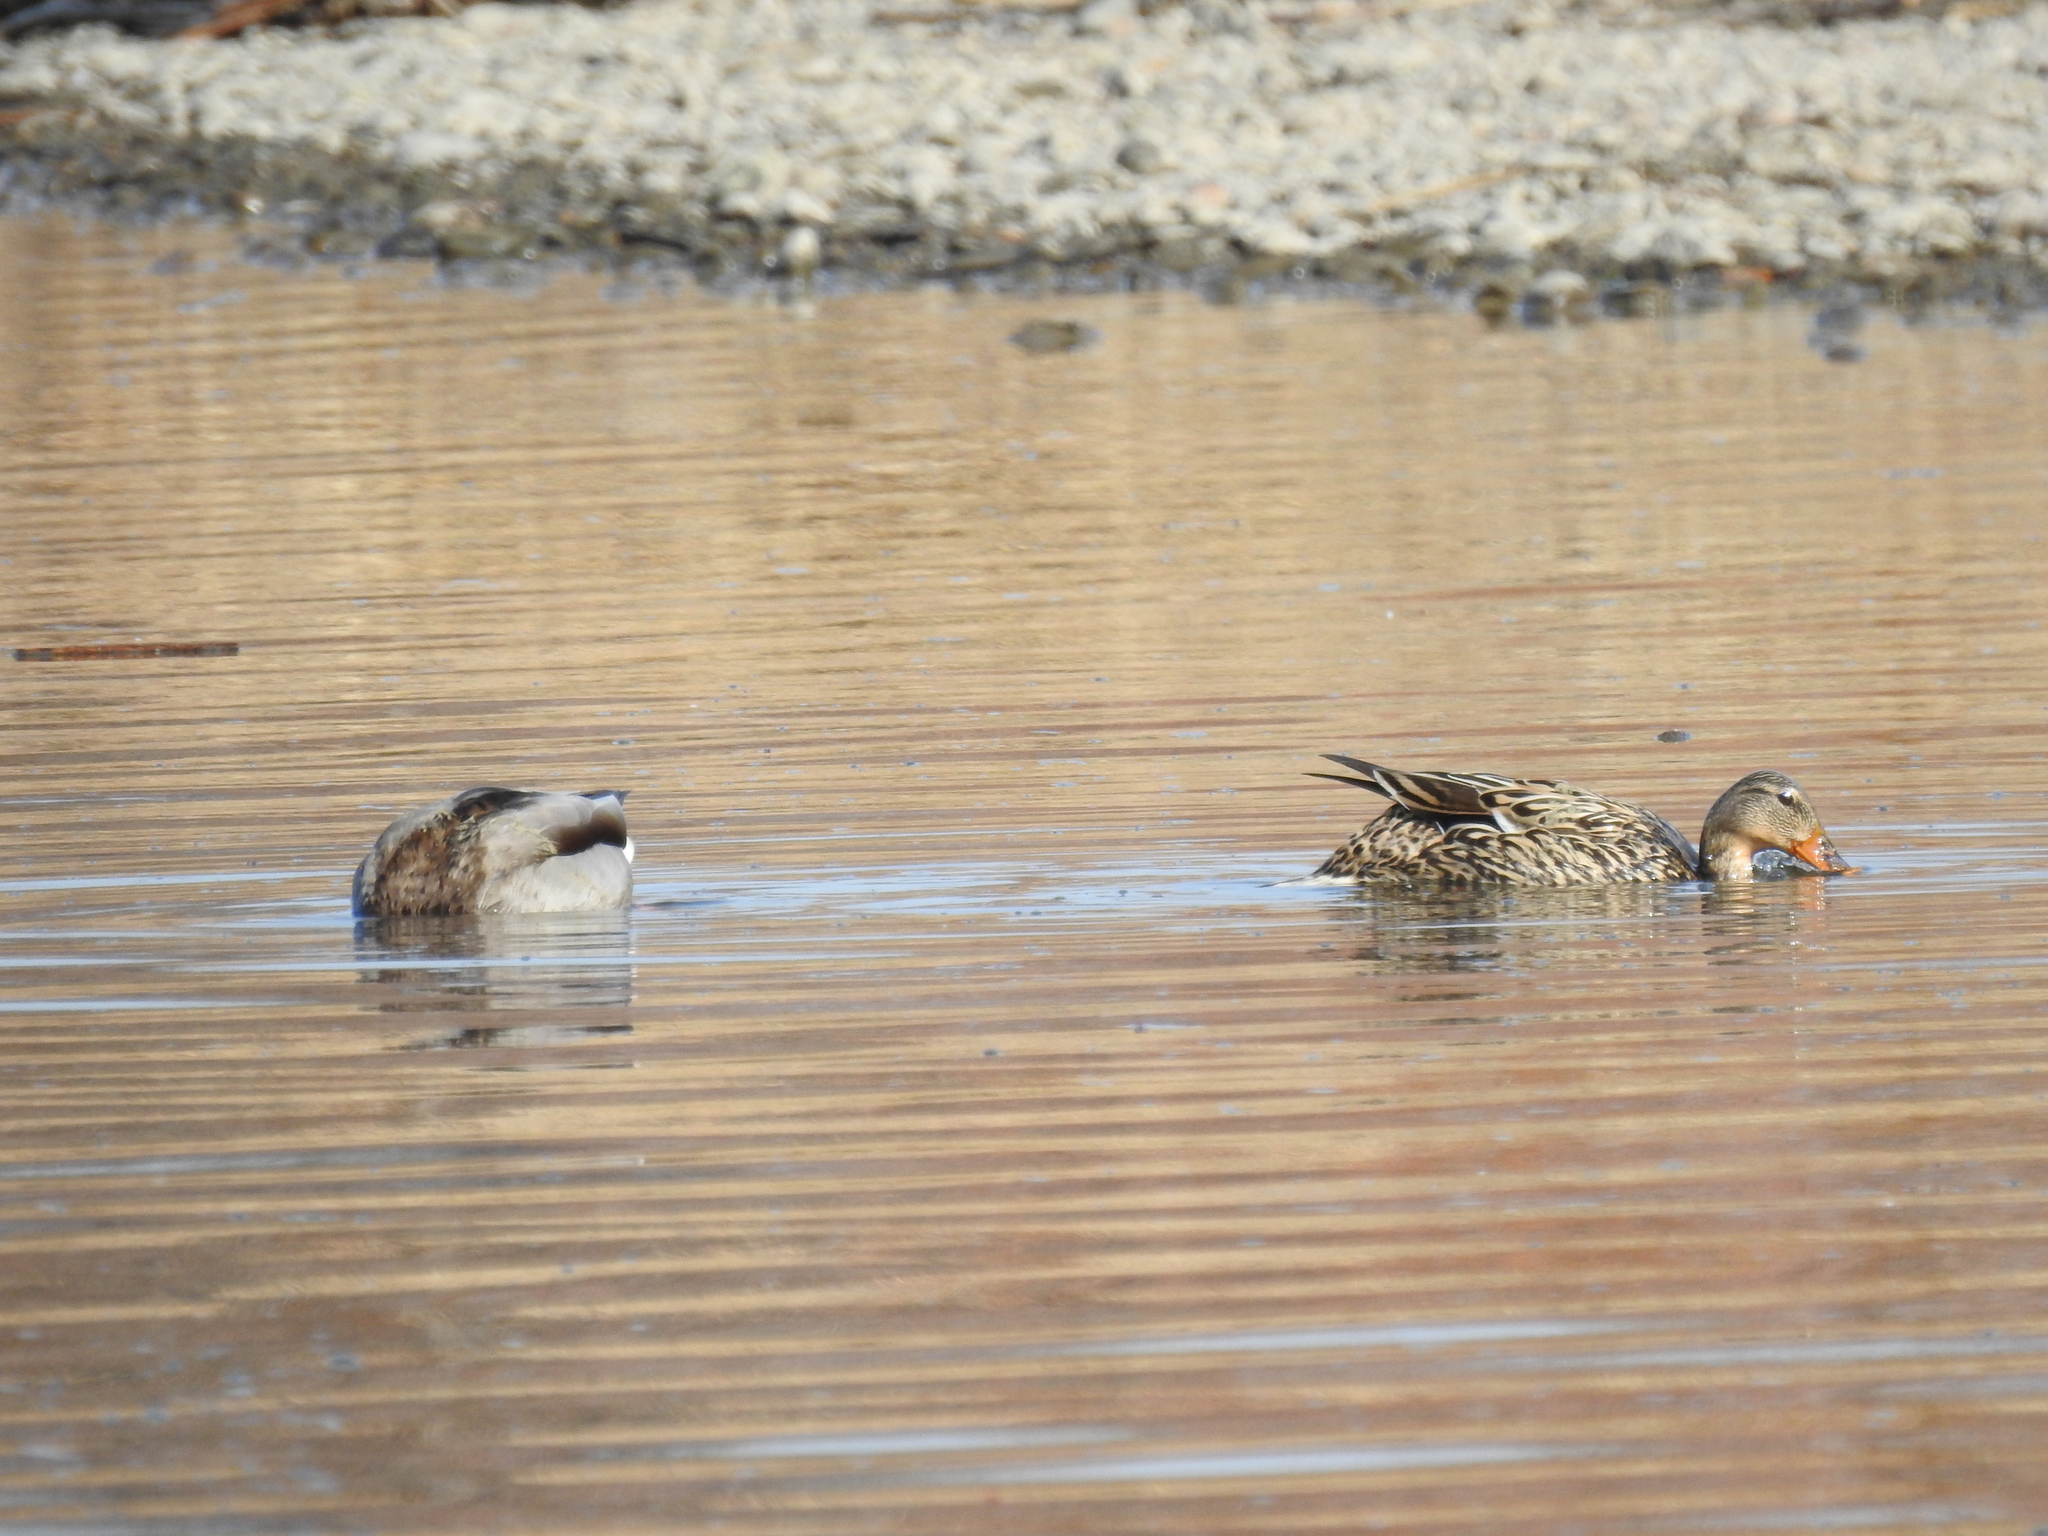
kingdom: Animalia
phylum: Chordata
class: Aves
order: Anseriformes
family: Anatidae
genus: Anas
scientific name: Anas platyrhynchos
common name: Mallard
